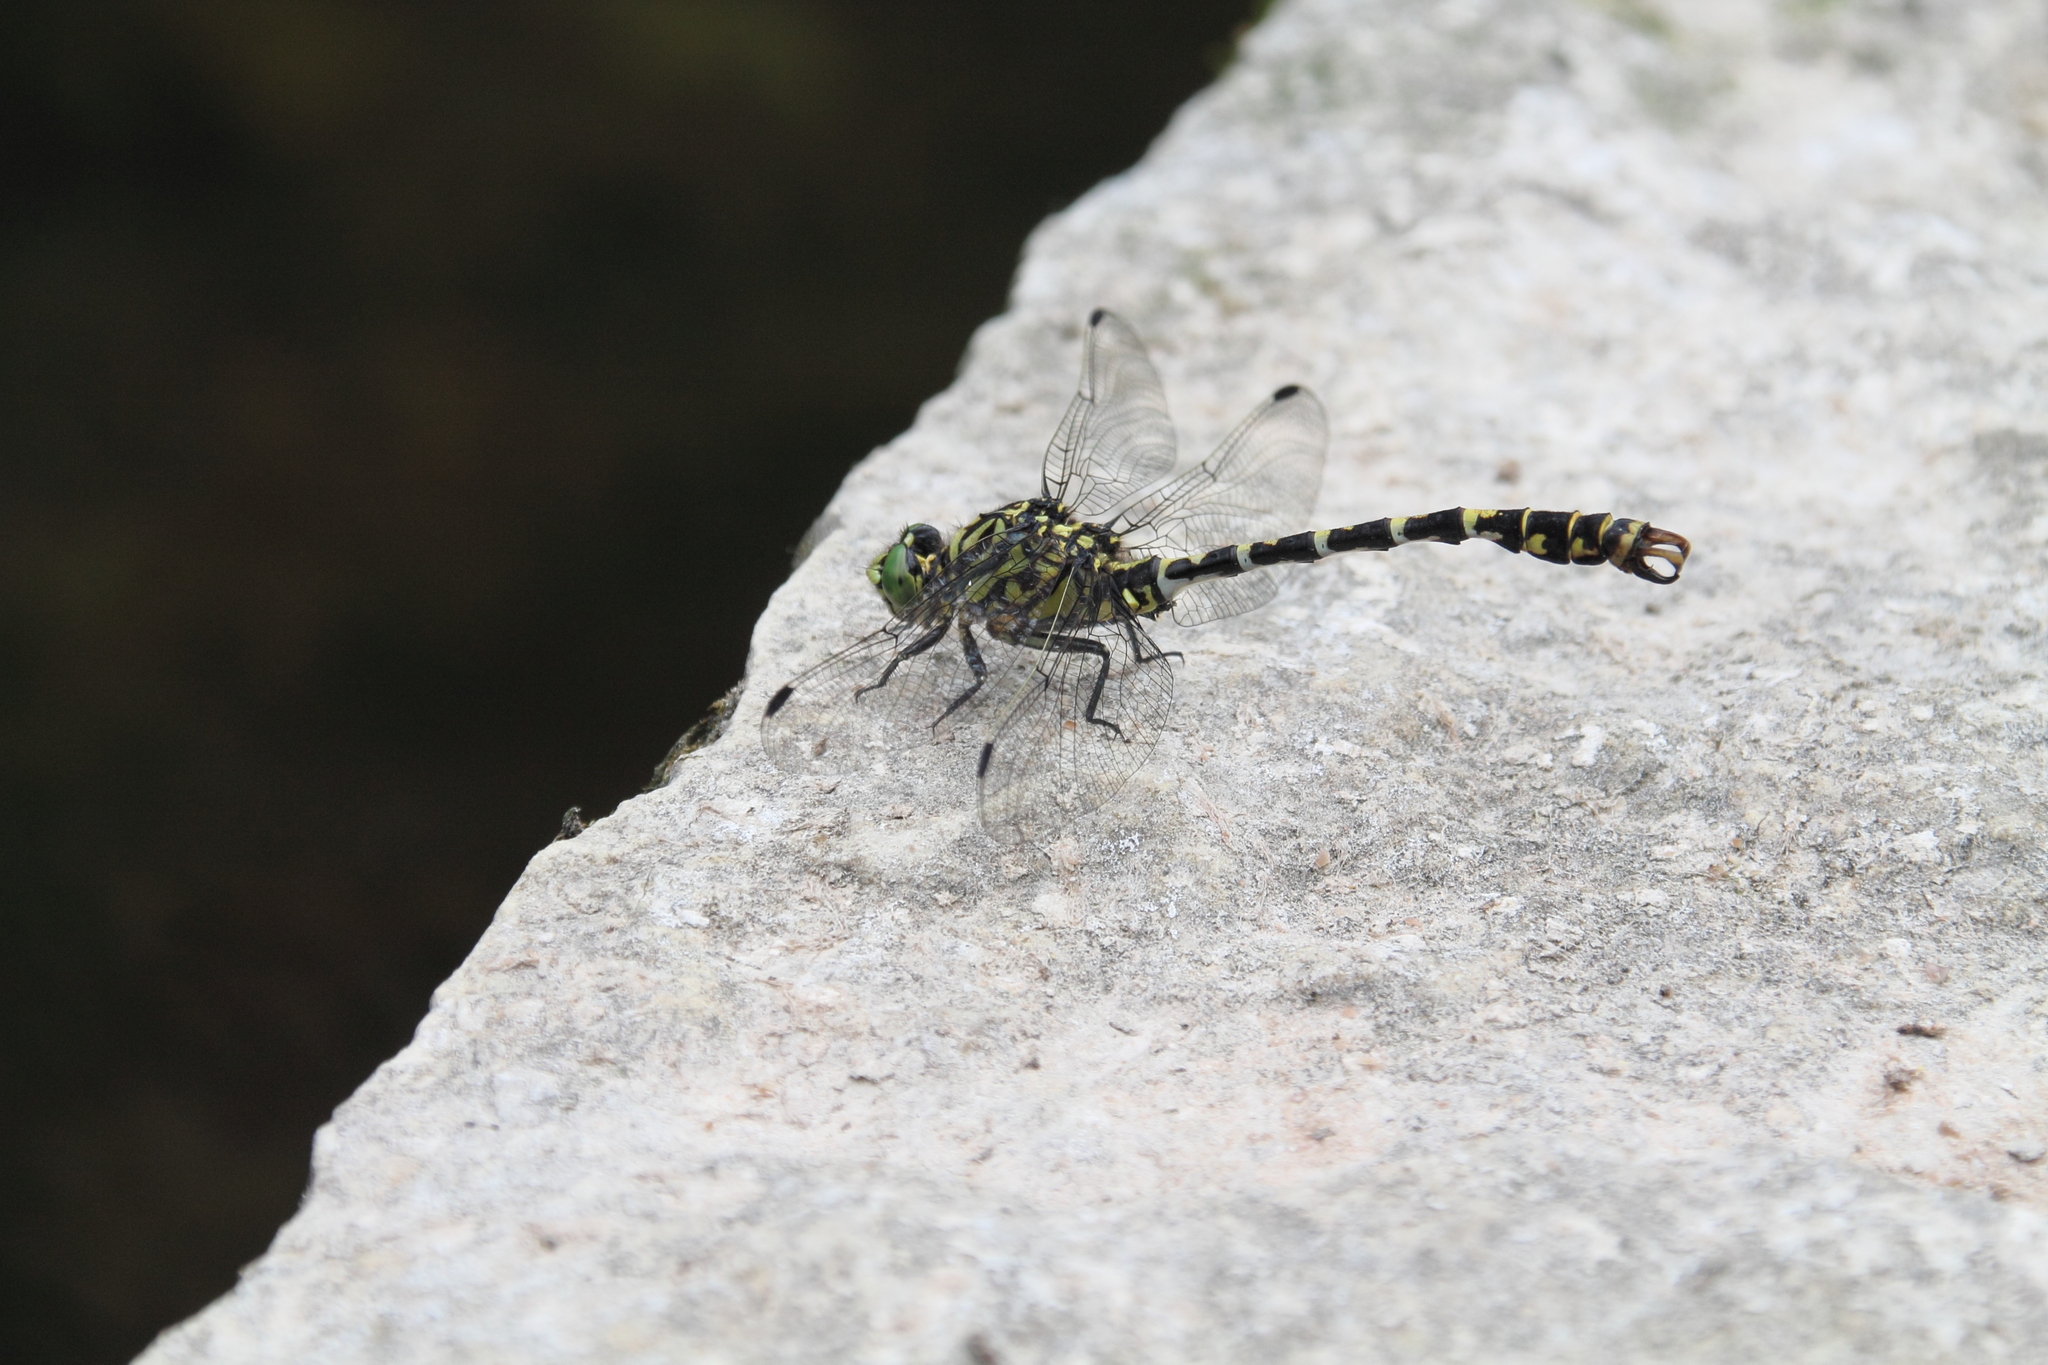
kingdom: Animalia
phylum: Arthropoda
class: Insecta
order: Odonata
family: Gomphidae
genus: Onychogomphus
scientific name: Onychogomphus forcipatus
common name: Small pincertail
